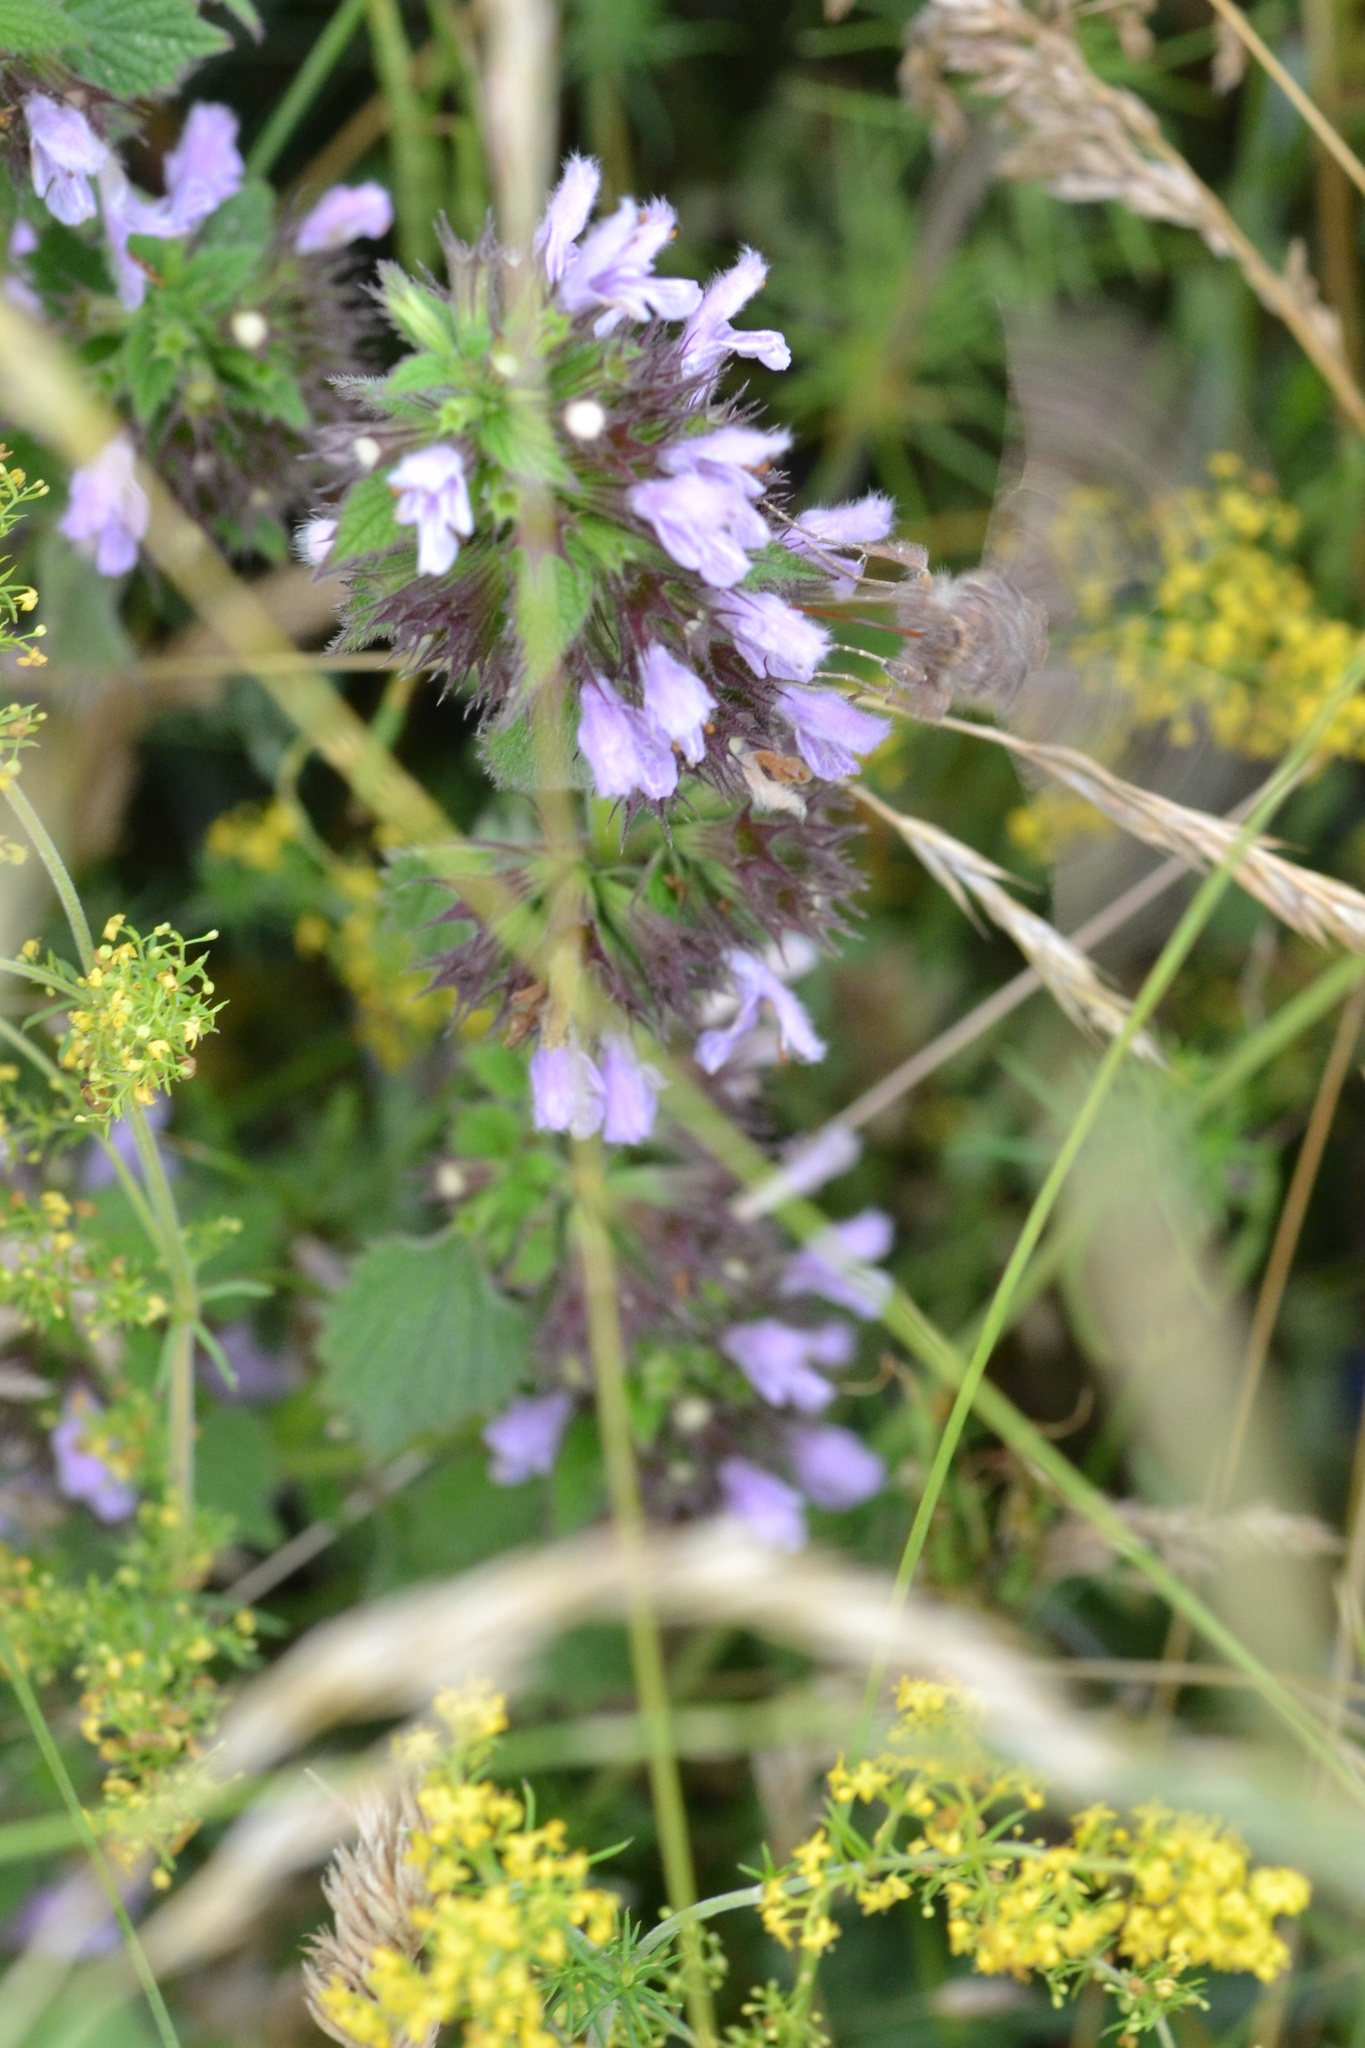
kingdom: Plantae
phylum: Tracheophyta
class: Magnoliopsida
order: Lamiales
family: Lamiaceae
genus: Ballota
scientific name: Ballota nigra
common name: Black horehound
